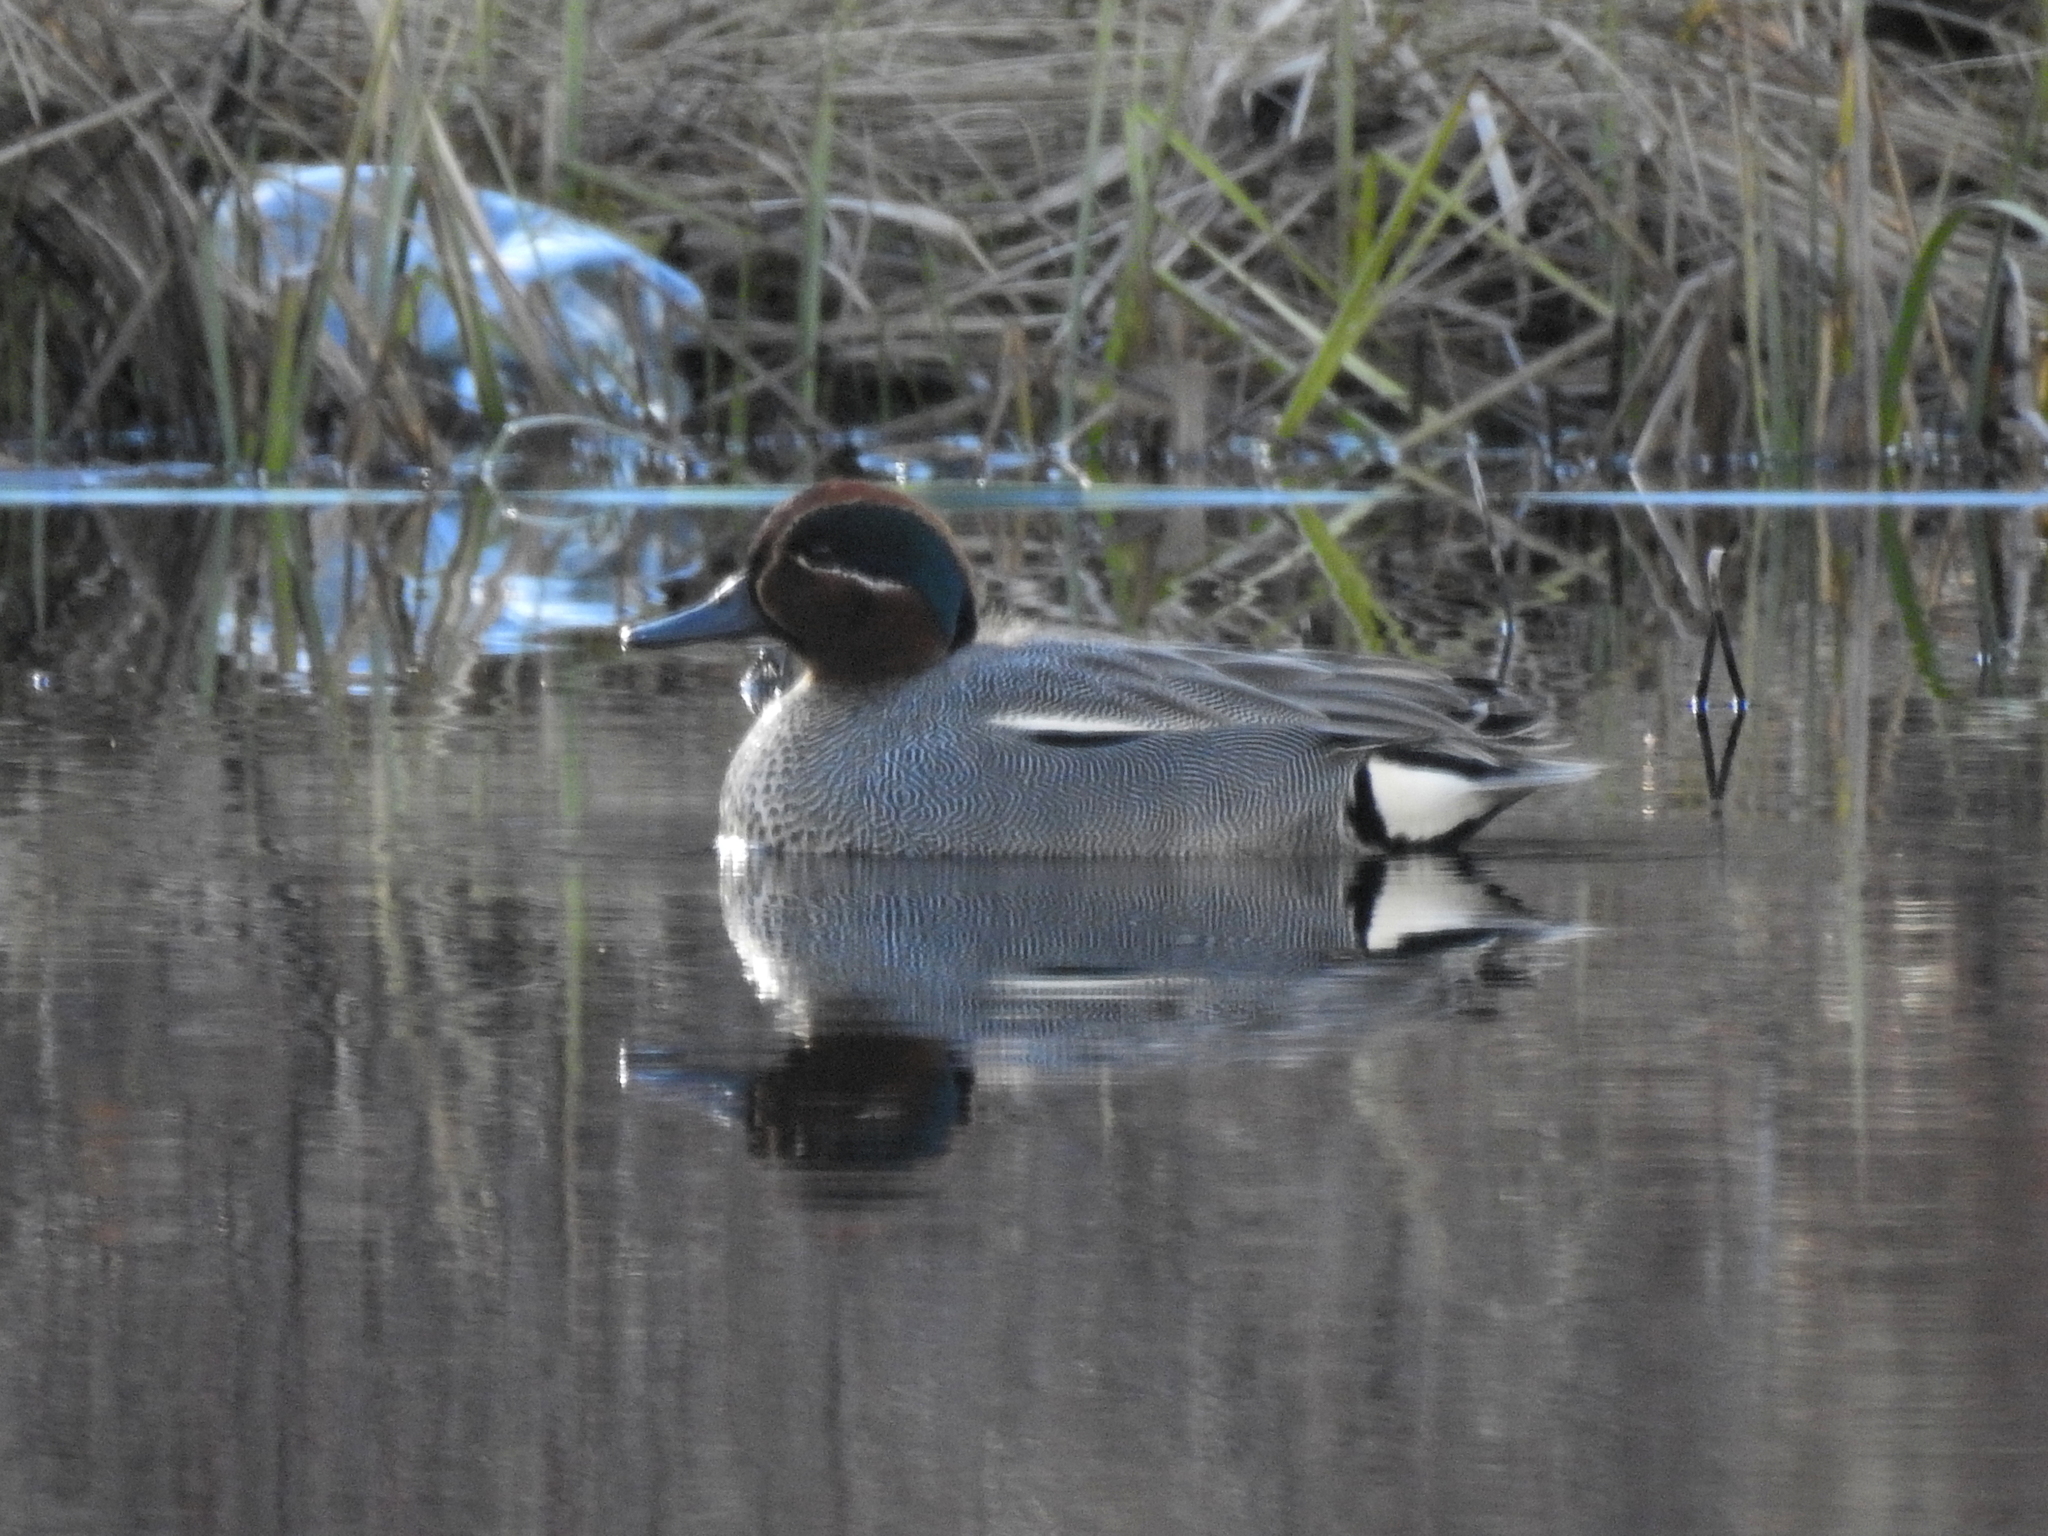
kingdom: Animalia
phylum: Chordata
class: Aves
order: Anseriformes
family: Anatidae
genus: Anas
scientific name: Anas crecca
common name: Eurasian teal
